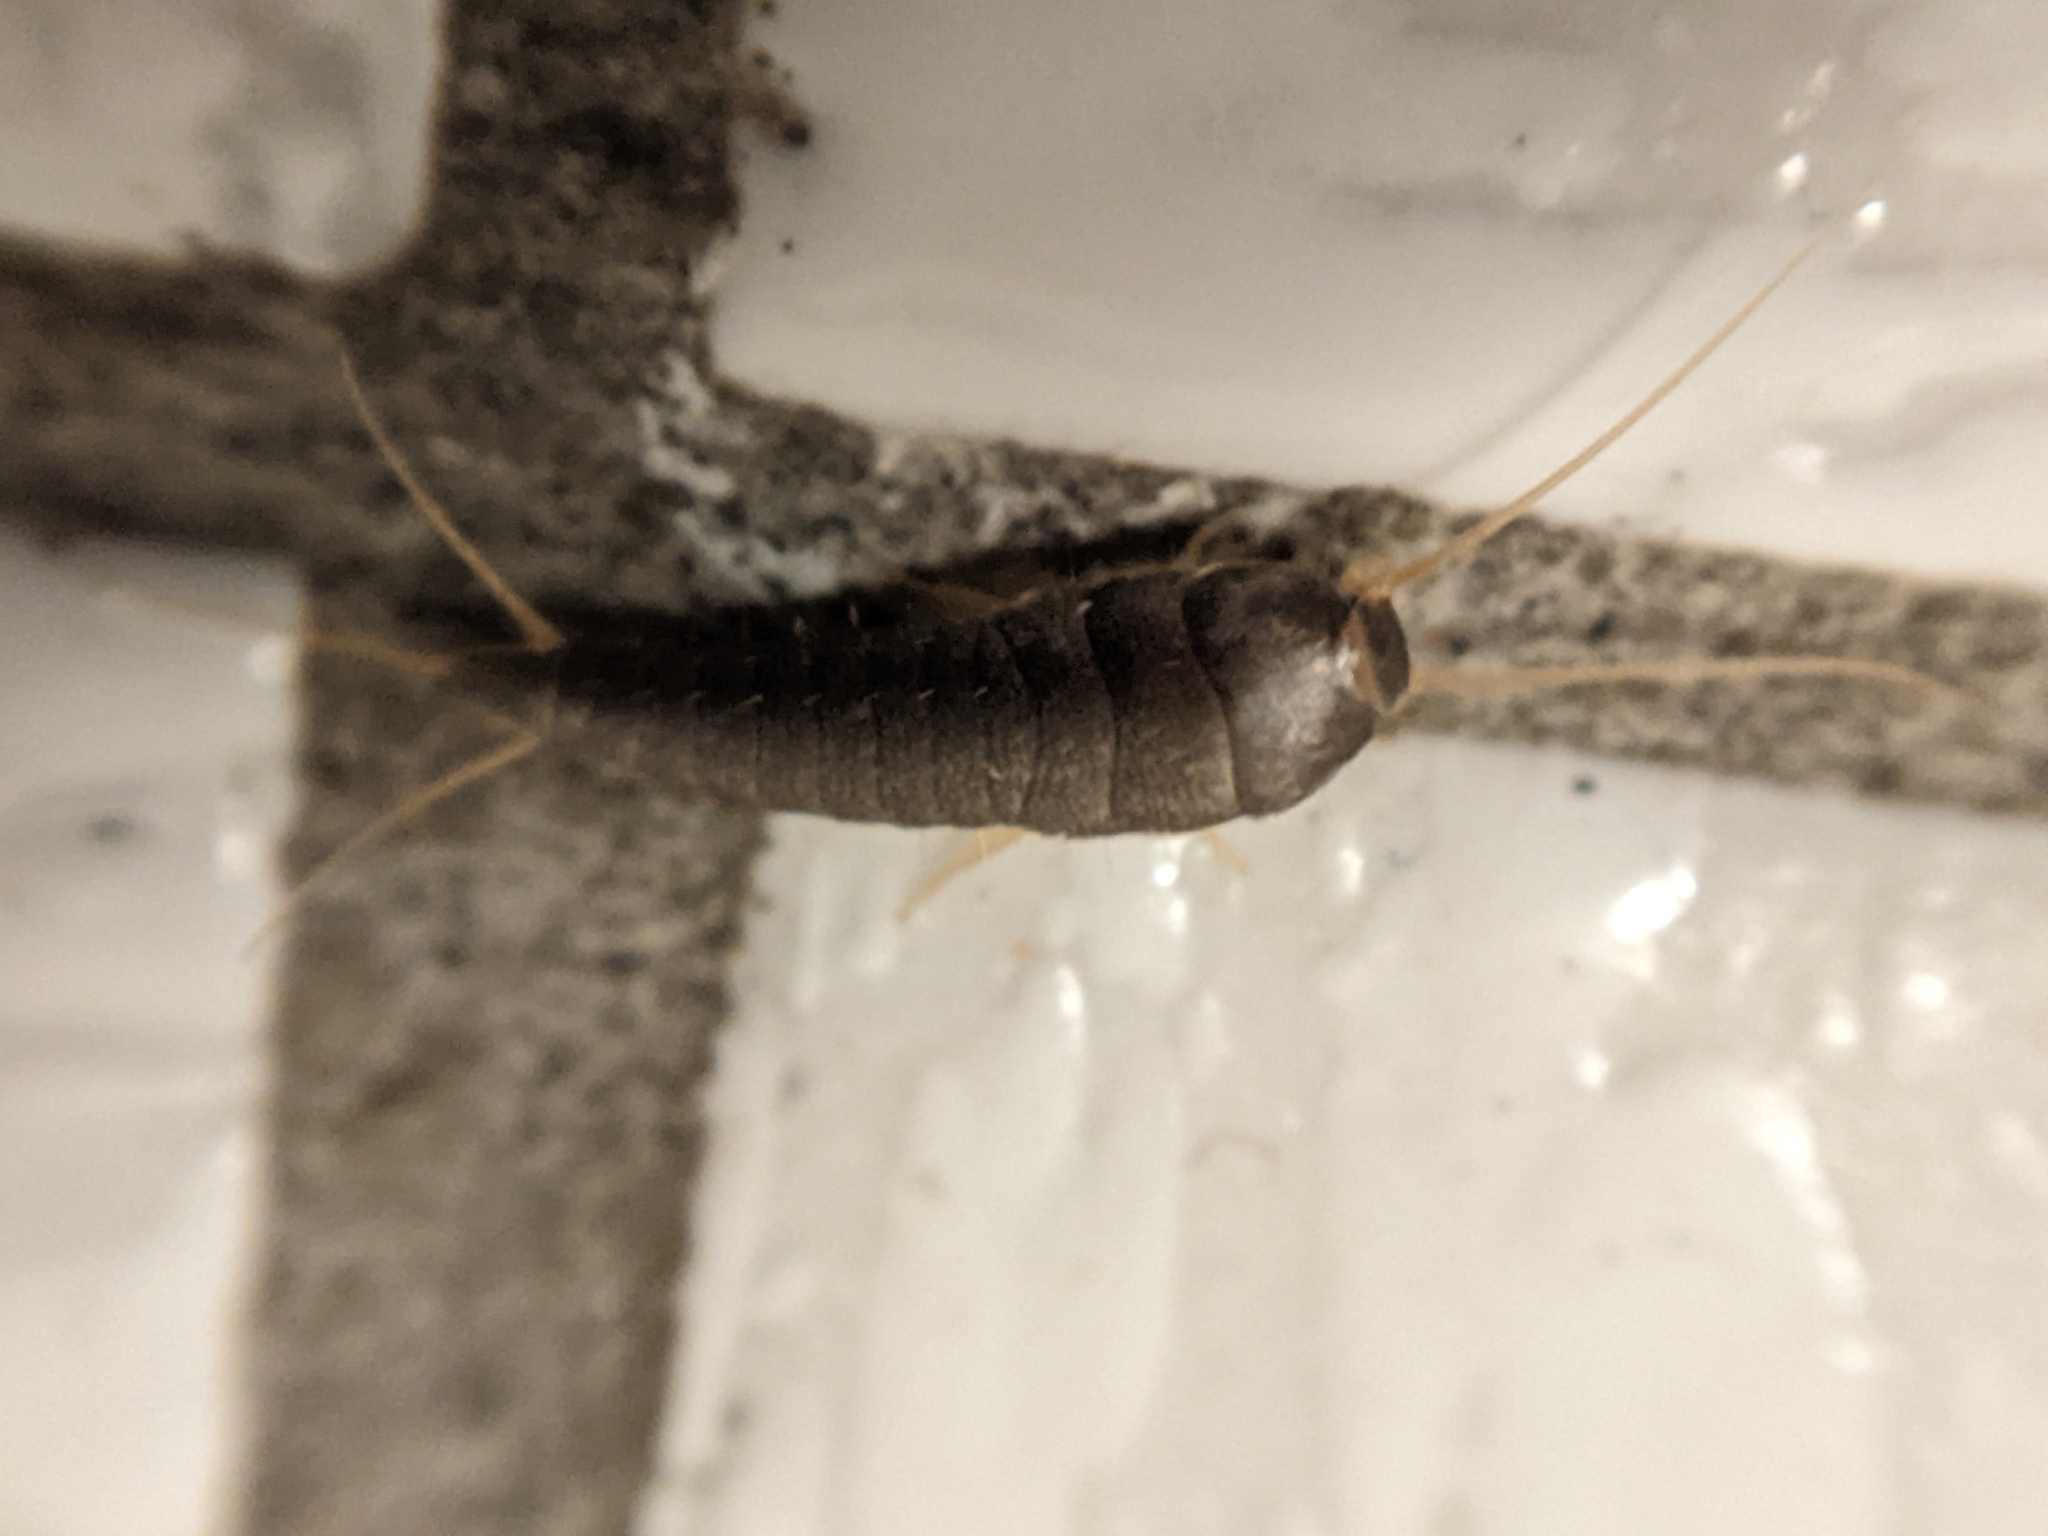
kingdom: Animalia
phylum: Arthropoda
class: Insecta
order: Zygentoma
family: Lepismatidae
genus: Lepisma
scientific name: Lepisma saccharinum
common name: Silverfish
